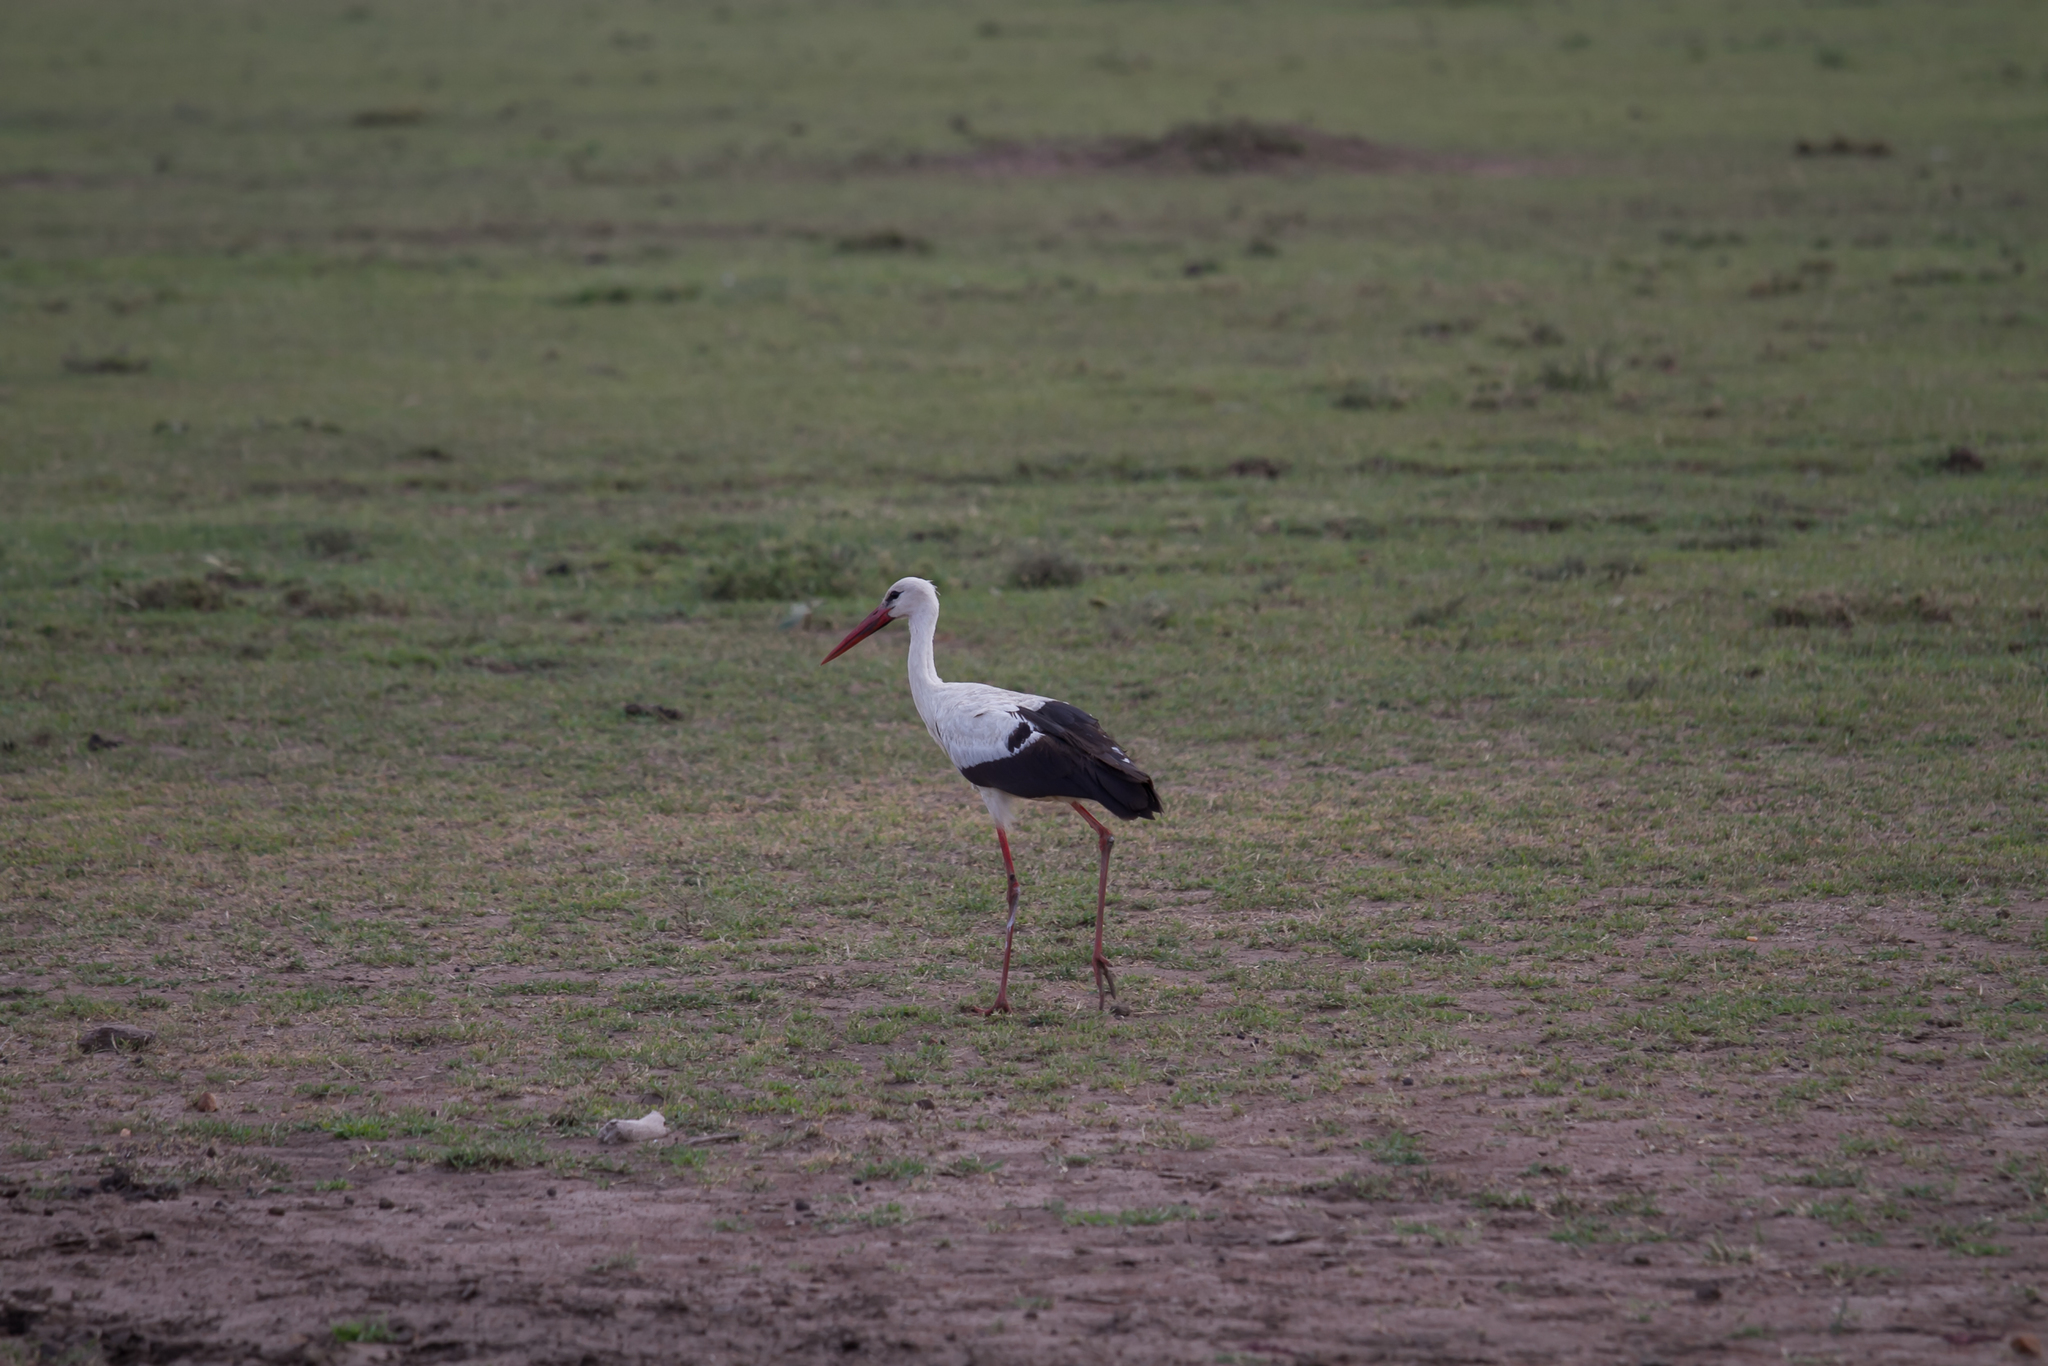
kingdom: Animalia
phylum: Chordata
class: Aves
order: Ciconiiformes
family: Ciconiidae
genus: Ciconia
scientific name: Ciconia ciconia
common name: White stork
